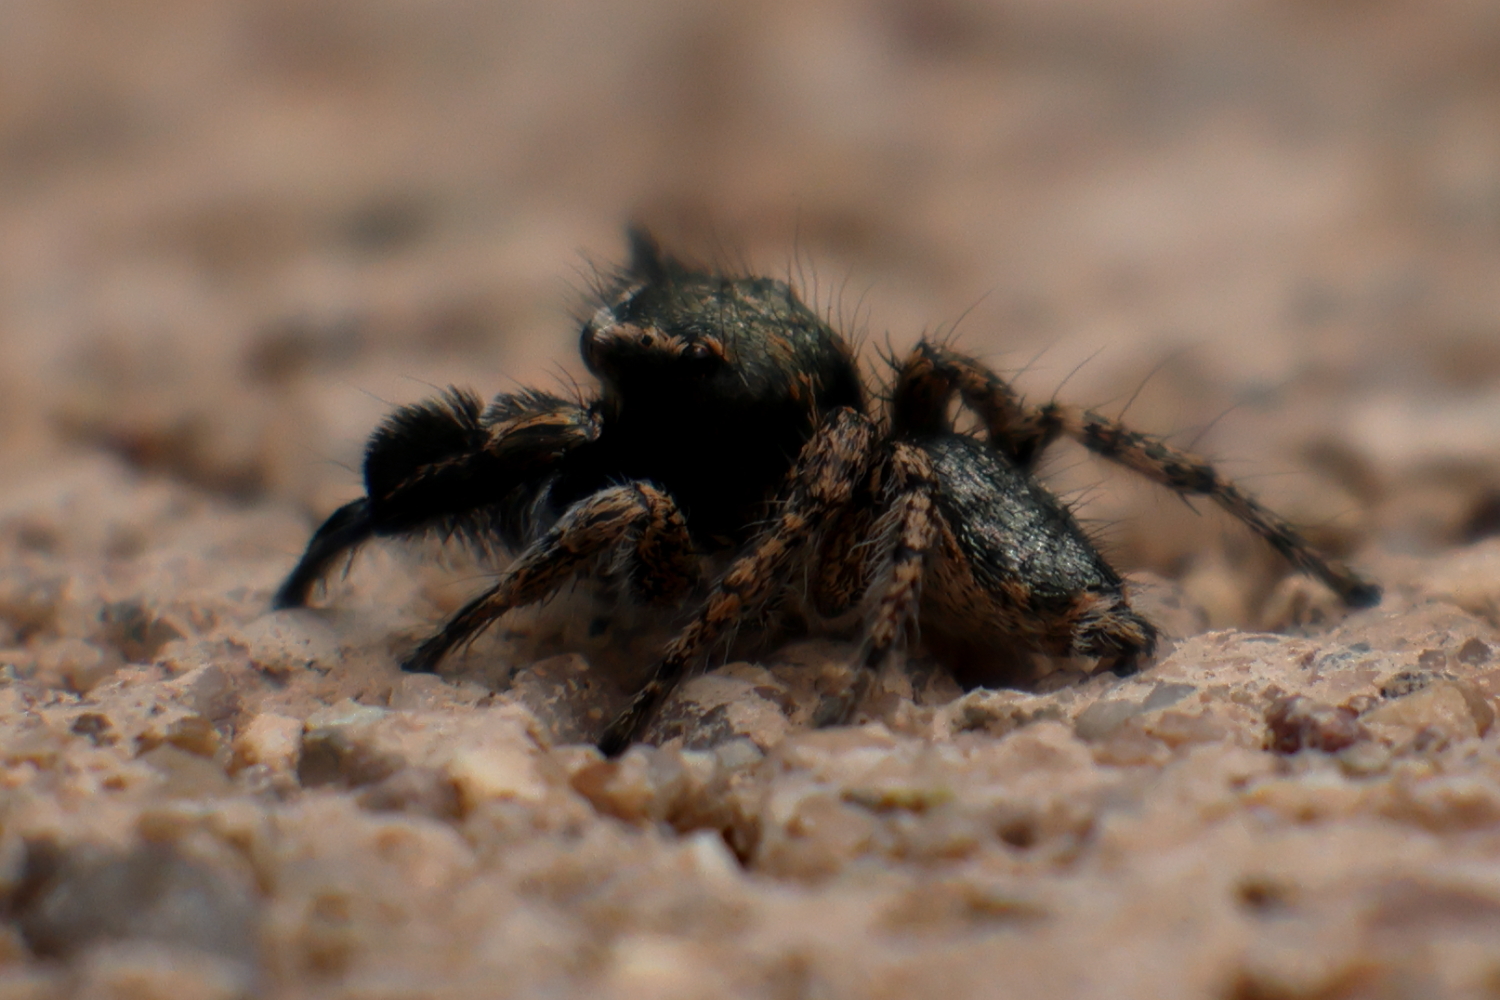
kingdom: Animalia
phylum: Arthropoda
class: Arachnida
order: Araneae
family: Salticidae
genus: Habronattus
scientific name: Habronattus hirsutus
